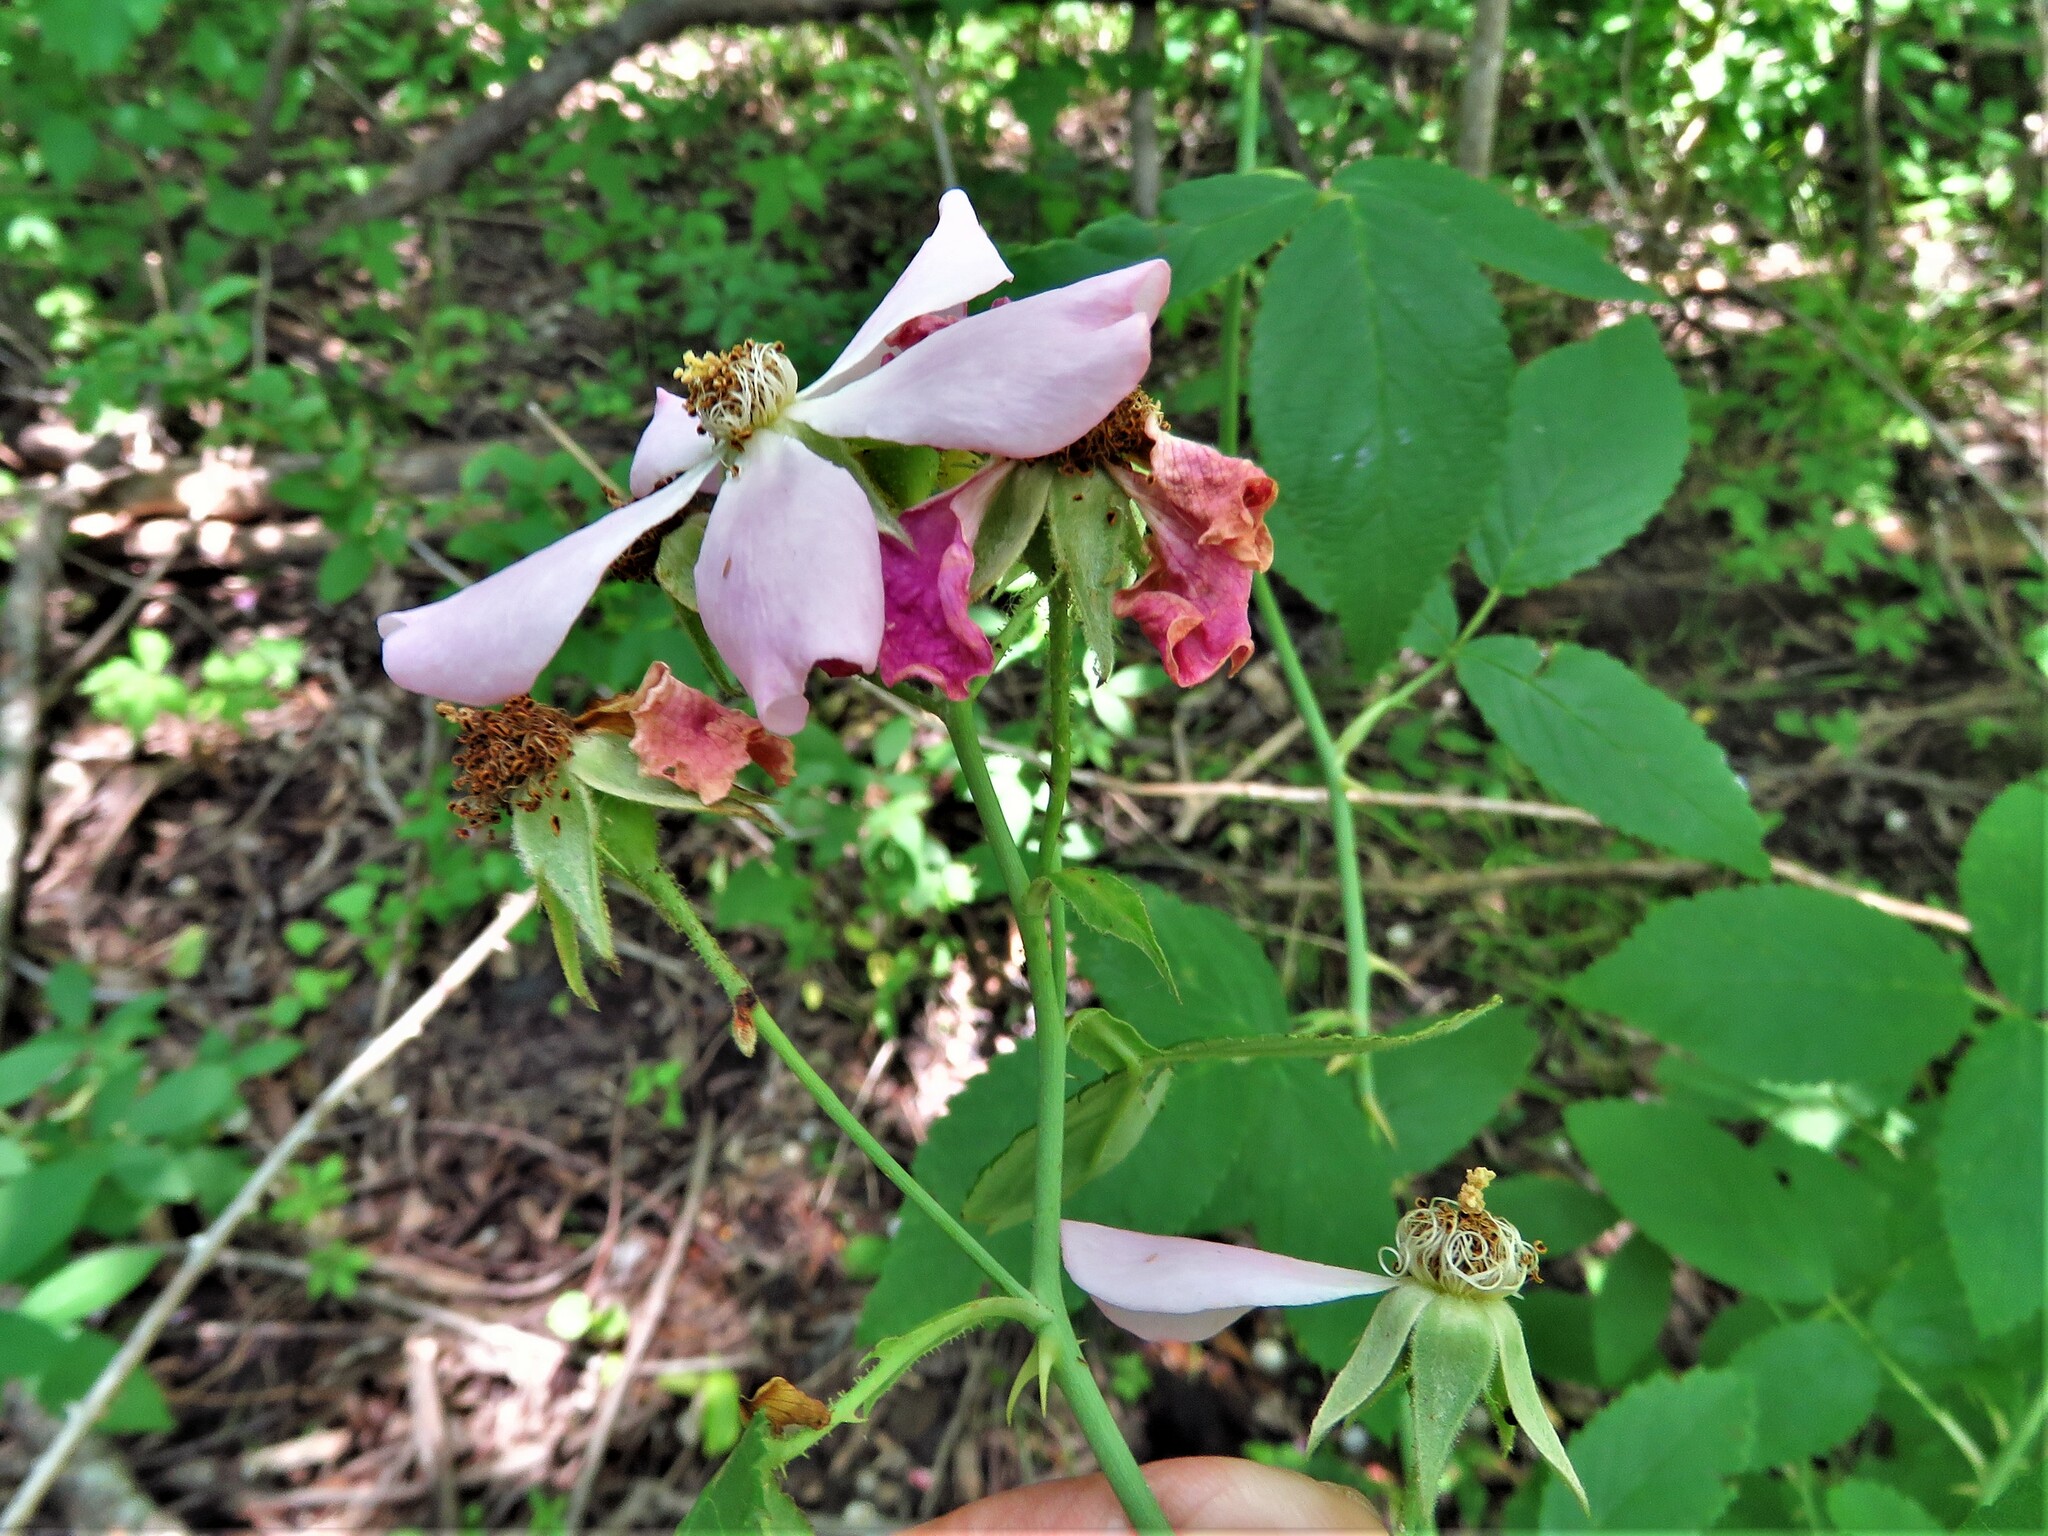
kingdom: Plantae
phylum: Tracheophyta
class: Magnoliopsida
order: Rosales
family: Rosaceae
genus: Rosa
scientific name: Rosa setigera
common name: Prairie rose
